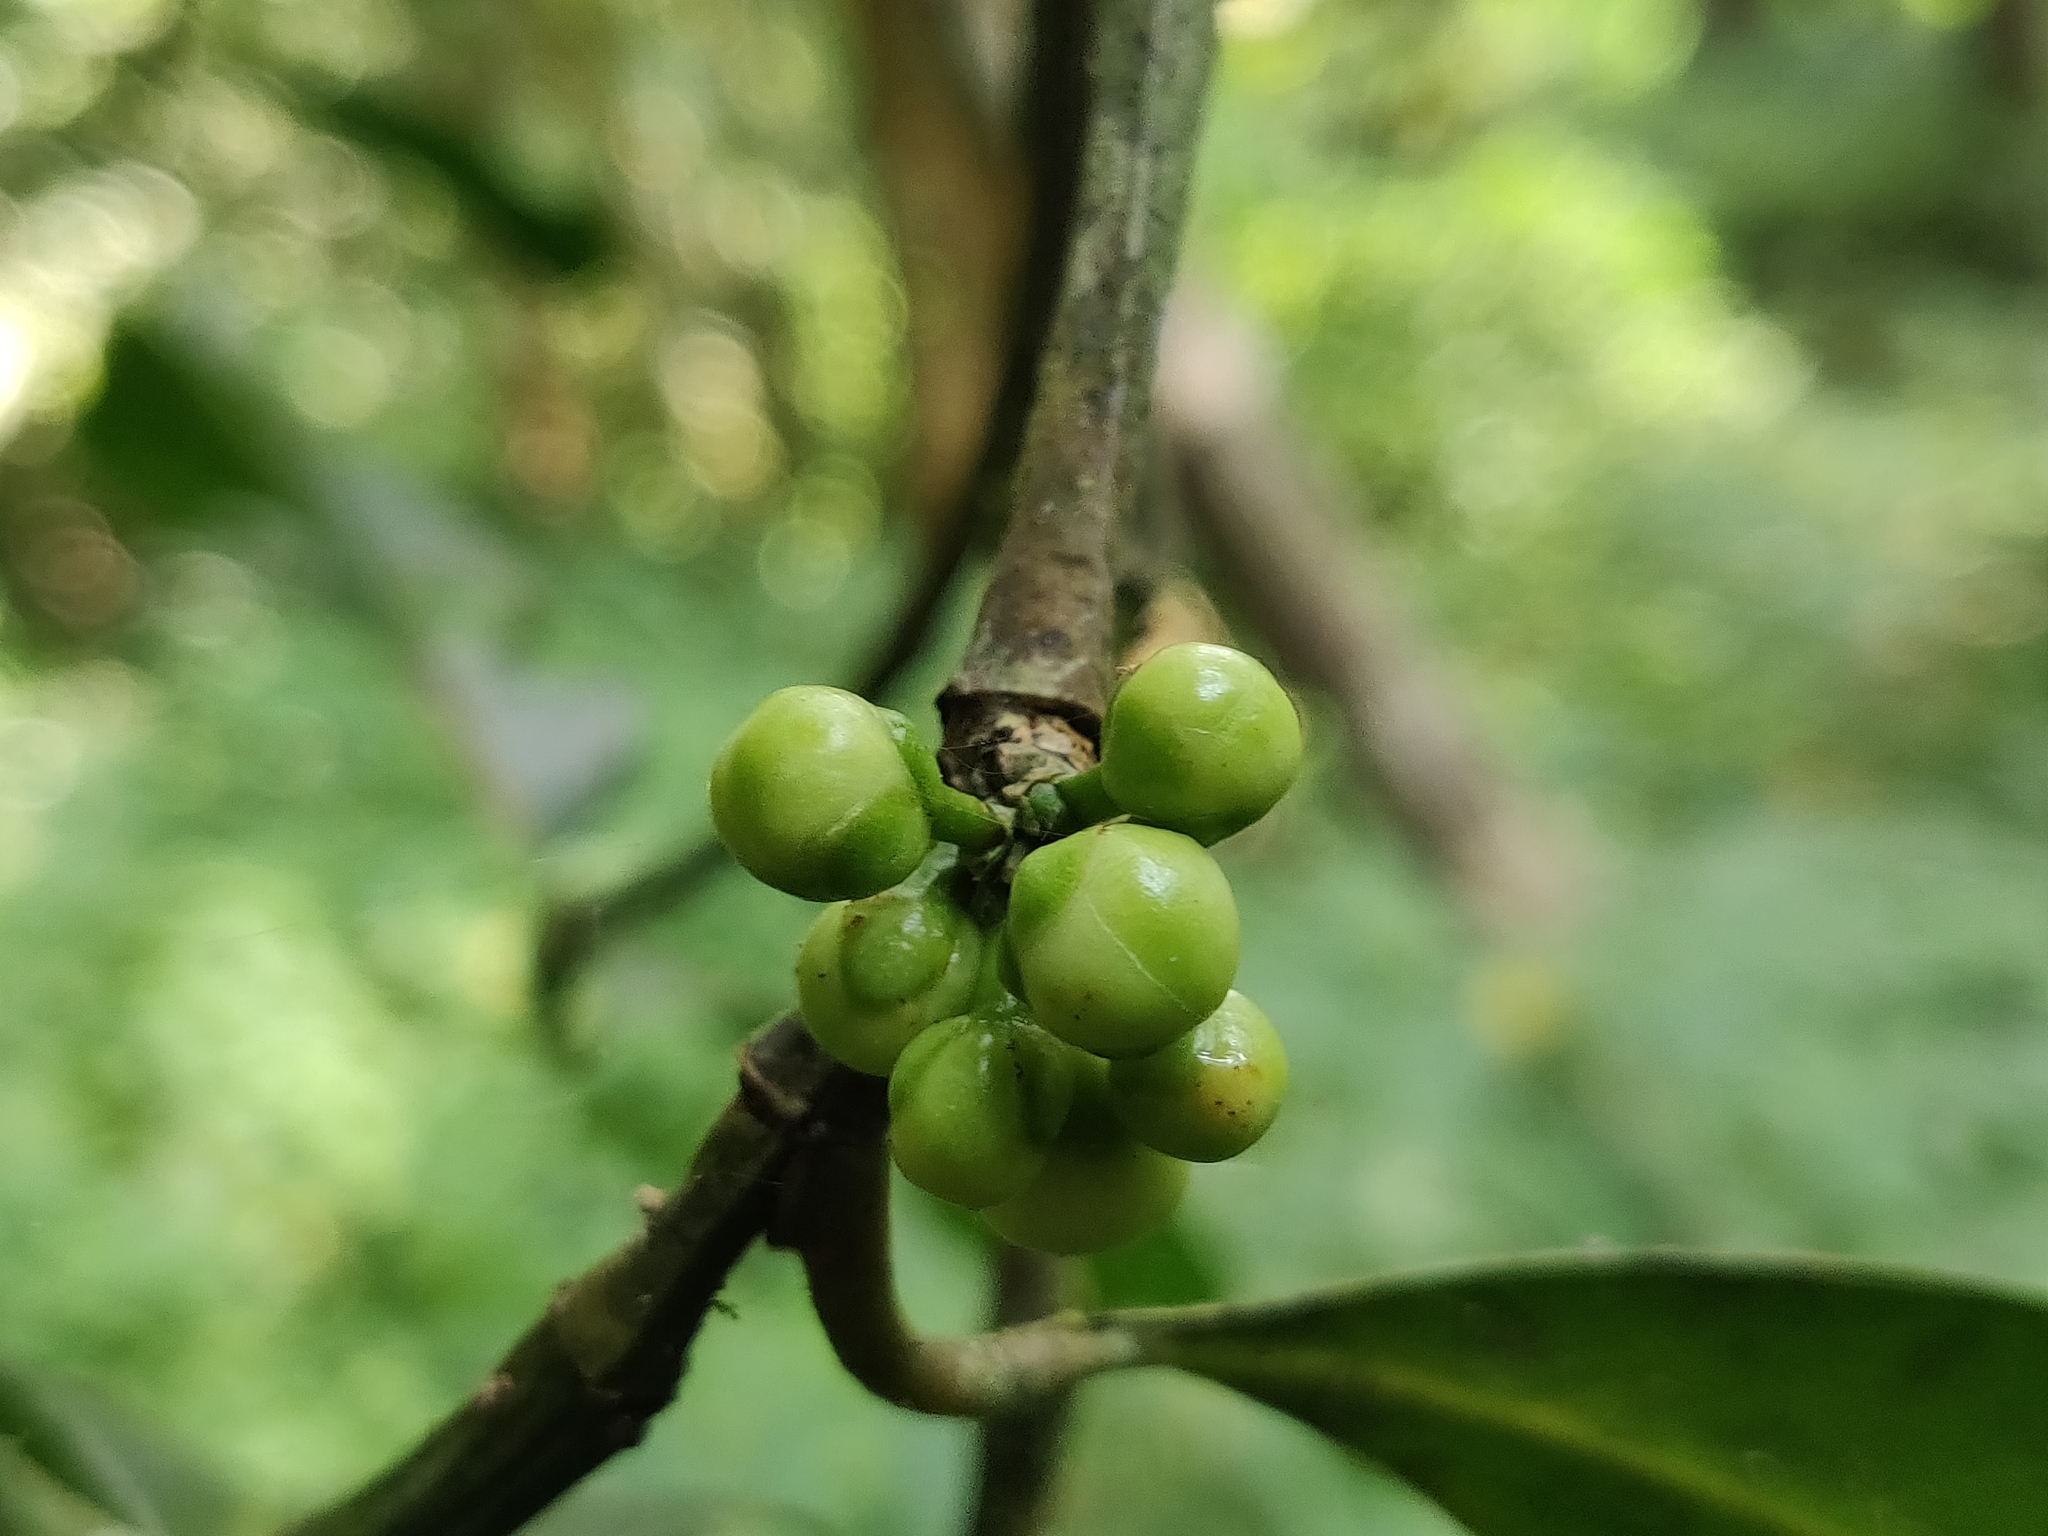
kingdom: Plantae
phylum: Tracheophyta
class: Magnoliopsida
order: Malpighiales
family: Clusiaceae
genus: Garcinia
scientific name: Garcinia talbotii
